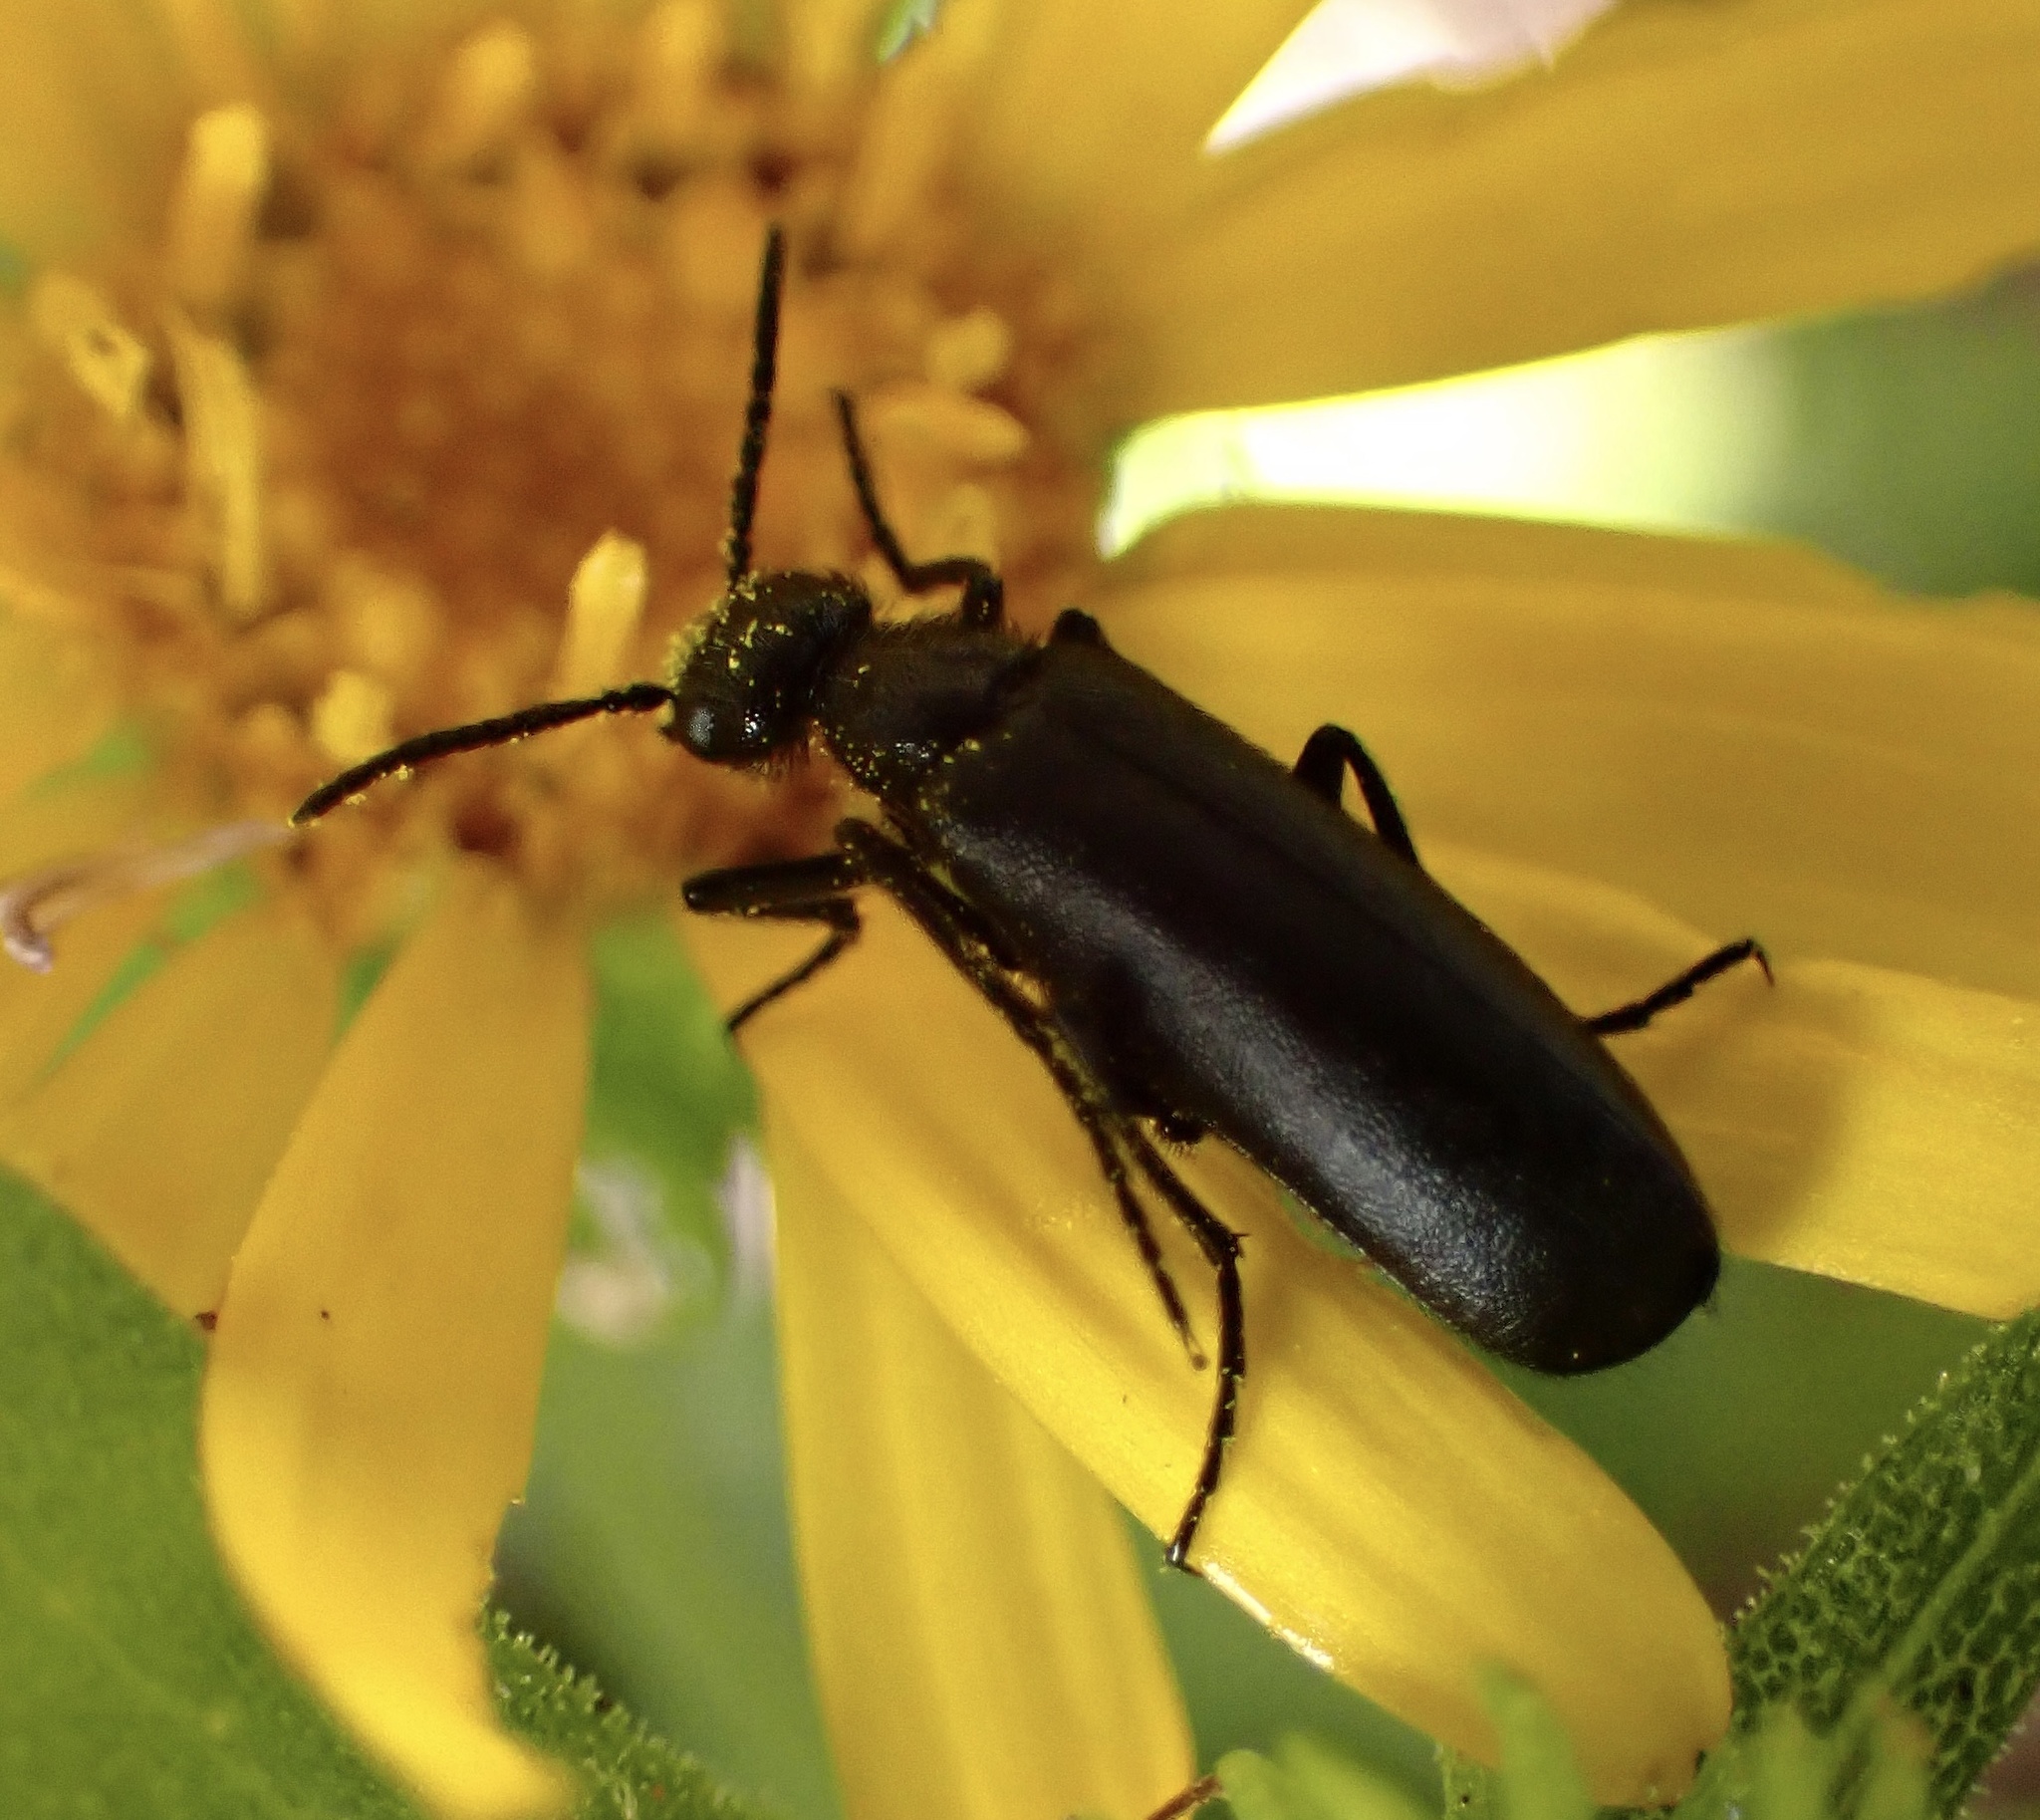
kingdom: Animalia
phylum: Arthropoda
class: Insecta
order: Coleoptera
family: Meloidae
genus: Epicauta
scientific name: Epicauta puncticollis
